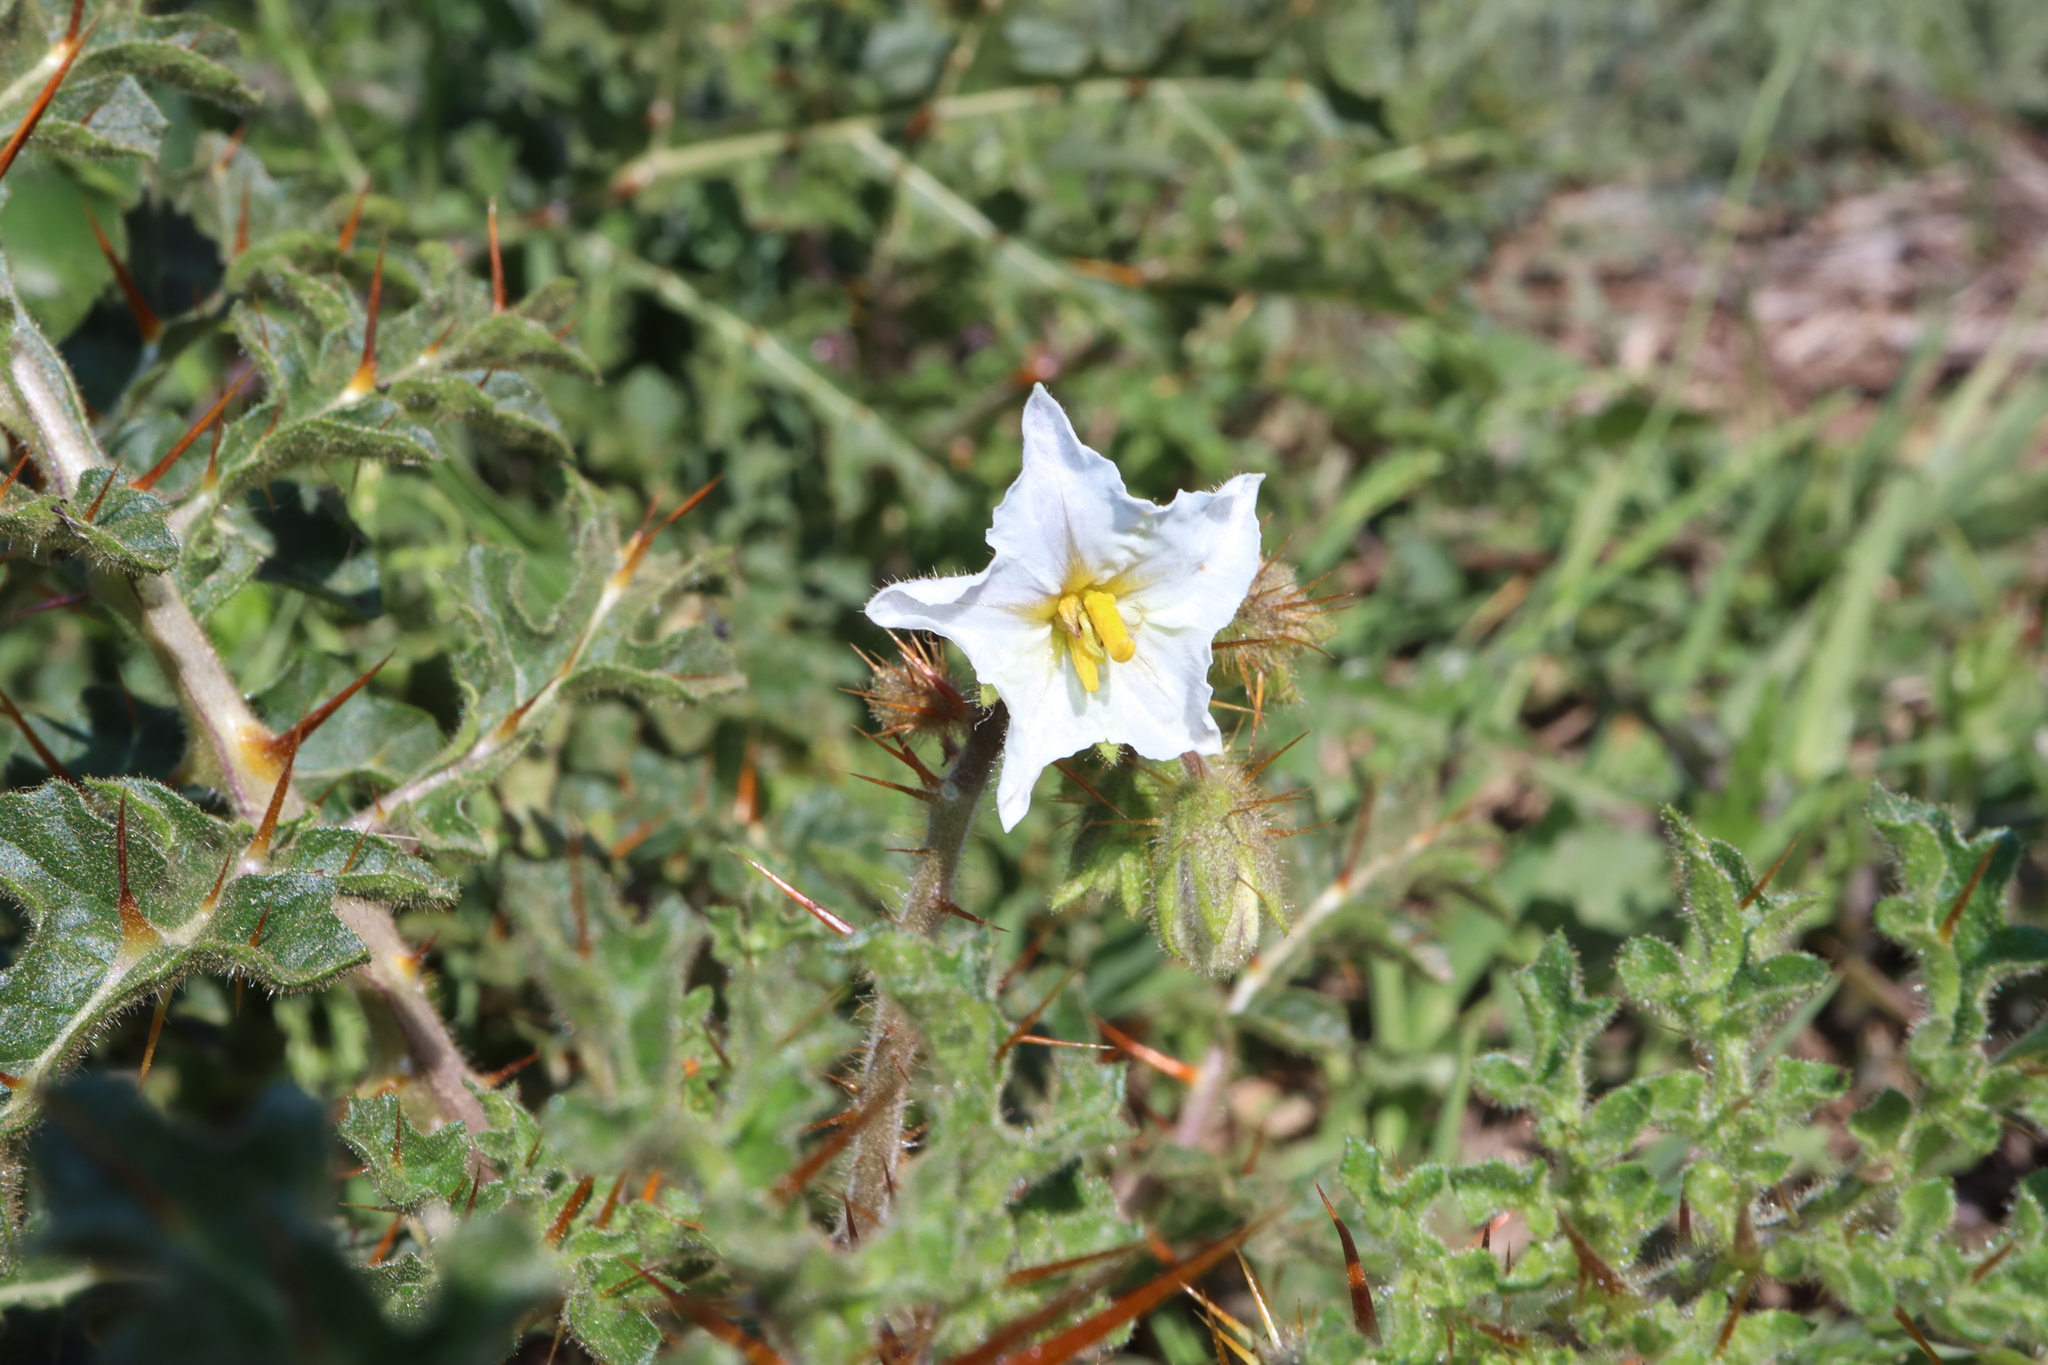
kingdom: Plantae
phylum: Tracheophyta
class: Magnoliopsida
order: Solanales
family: Solanaceae
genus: Solanum
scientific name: Solanum sisymbriifolium
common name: Red buffalo-bur
